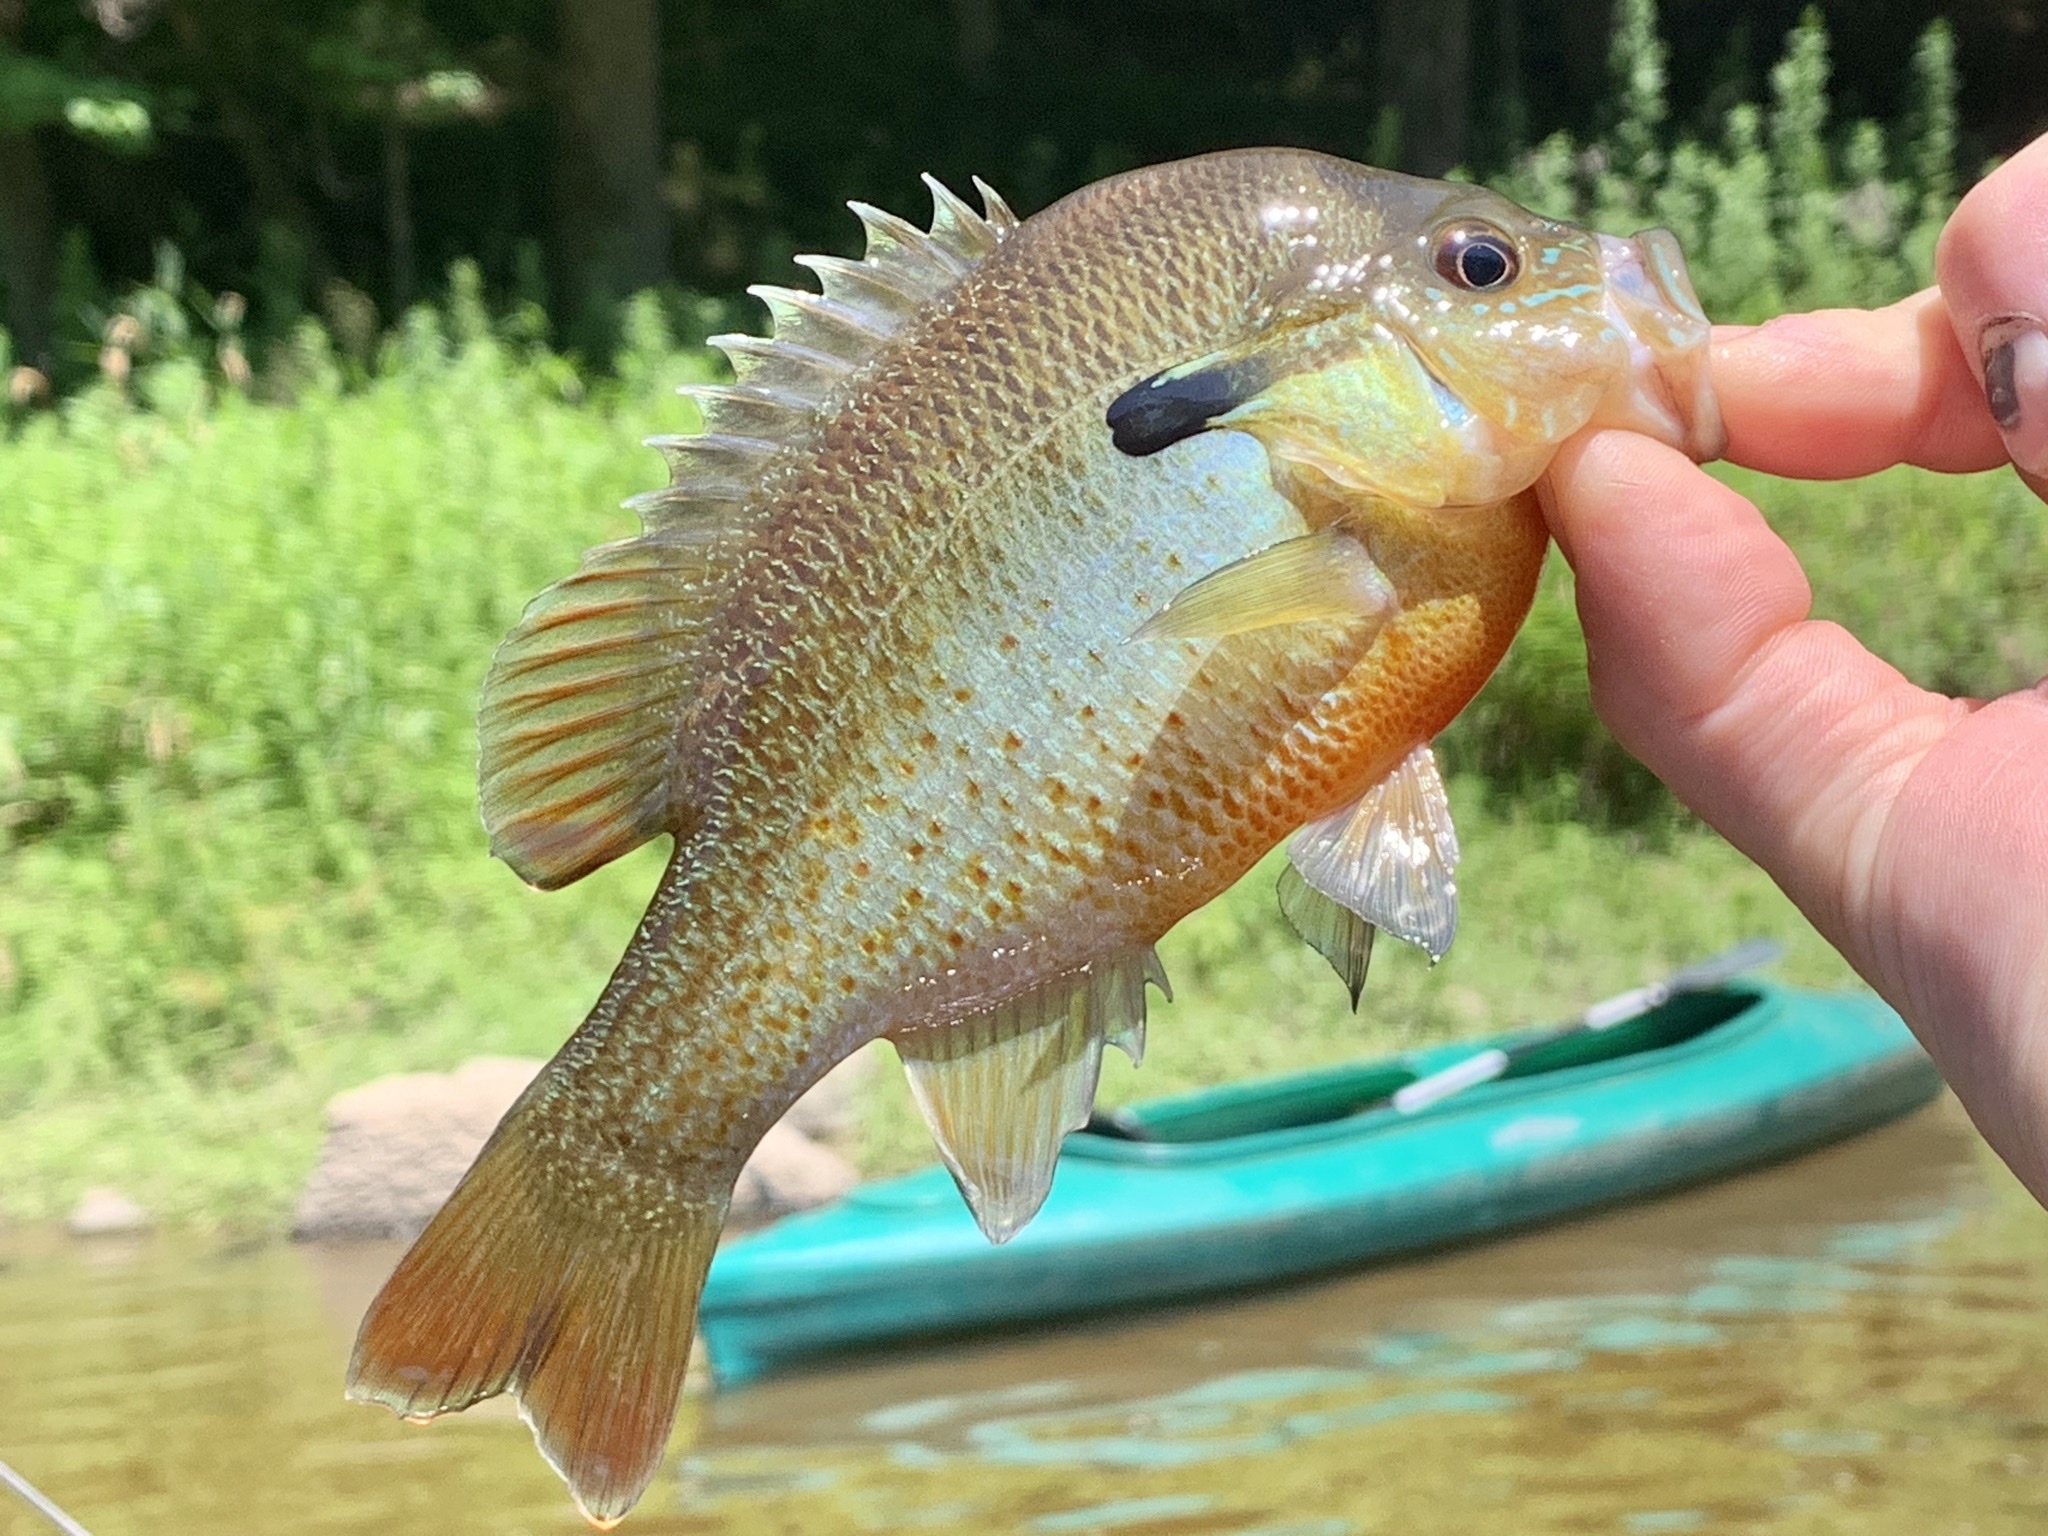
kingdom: Animalia
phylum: Chordata
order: Perciformes
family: Centrarchidae
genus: Lepomis
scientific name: Lepomis auritus
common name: Redbreast sunfish
